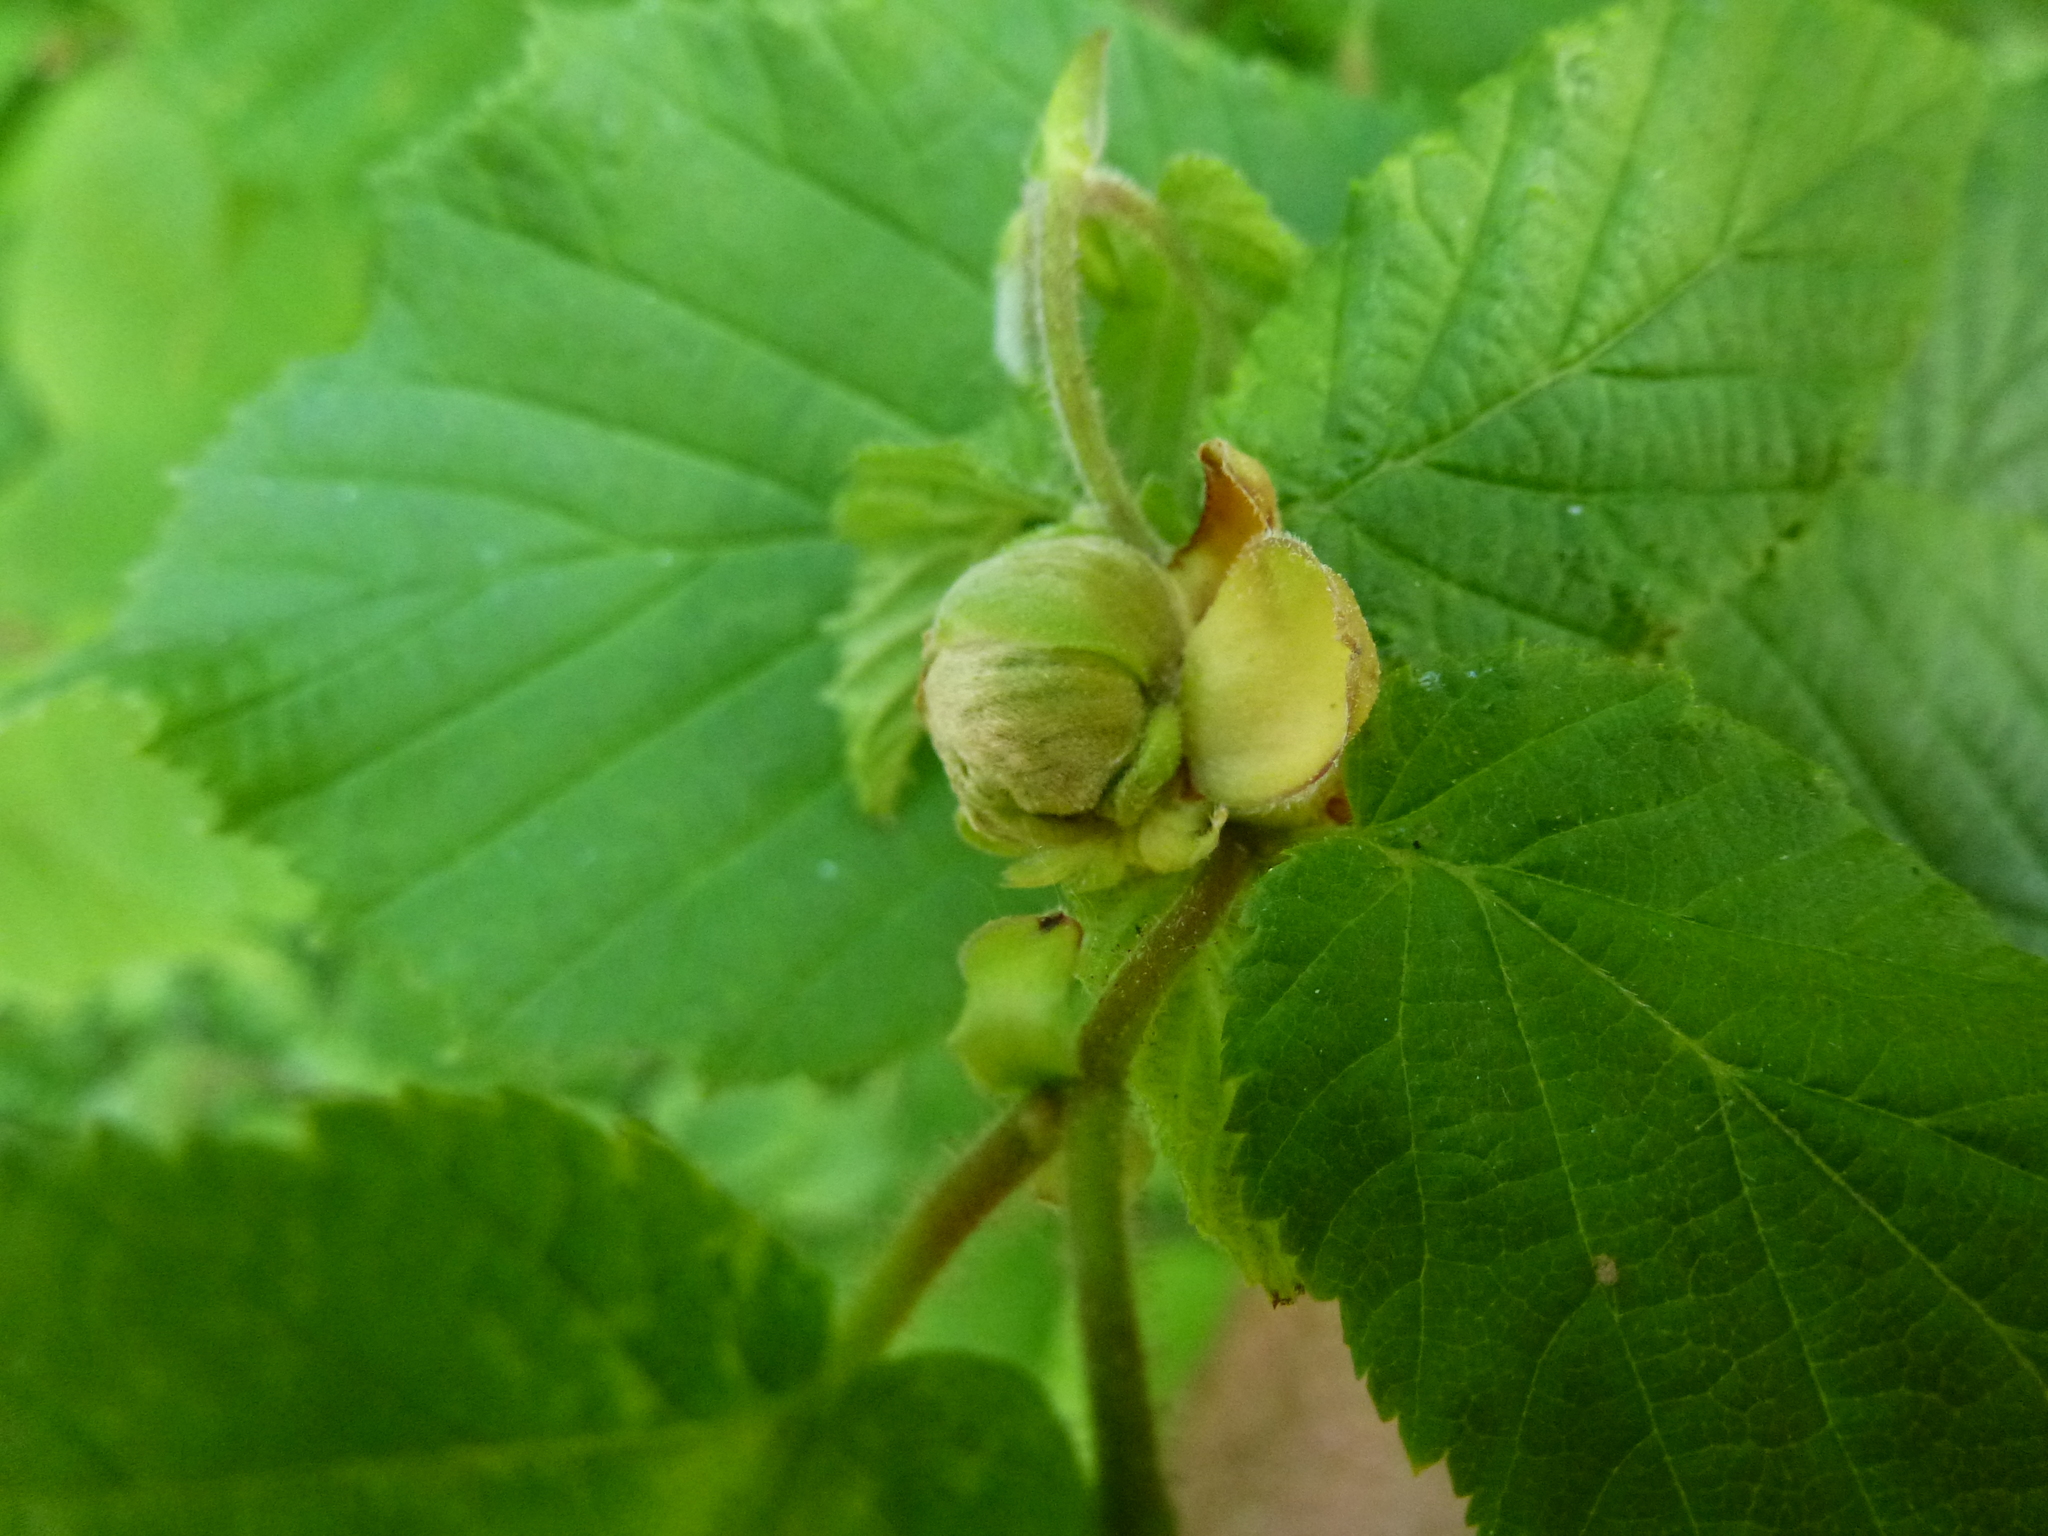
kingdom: Animalia
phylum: Arthropoda
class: Arachnida
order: Trombidiformes
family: Phytoptidae
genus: Phytoptus
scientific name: Phytoptus avellanae
